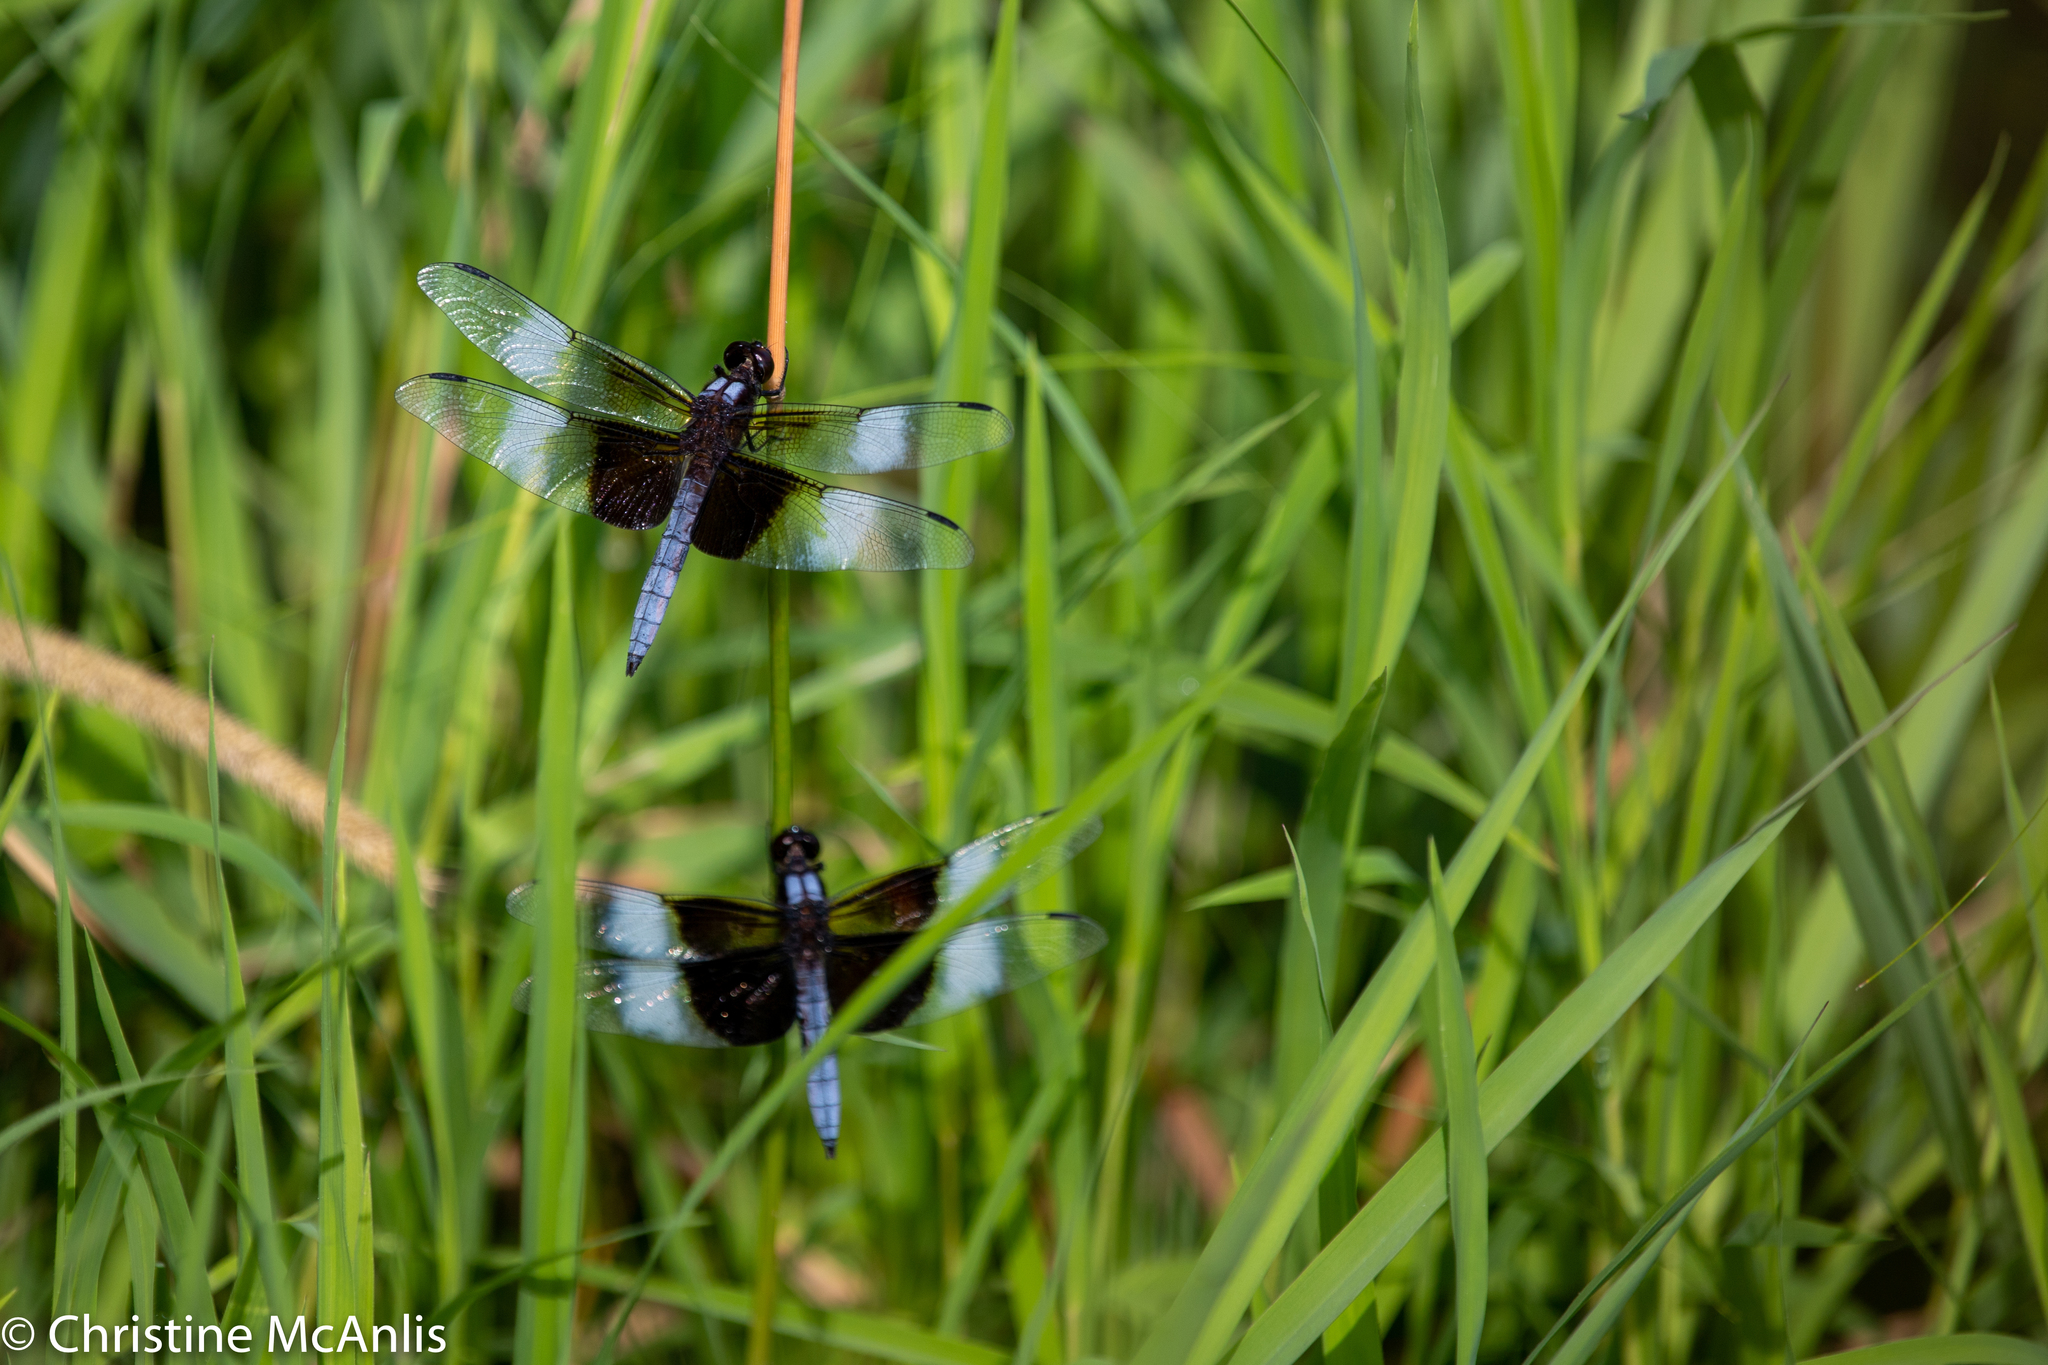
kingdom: Animalia
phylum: Arthropoda
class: Insecta
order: Odonata
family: Libellulidae
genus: Libellula
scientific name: Libellula luctuosa
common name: Widow skimmer
